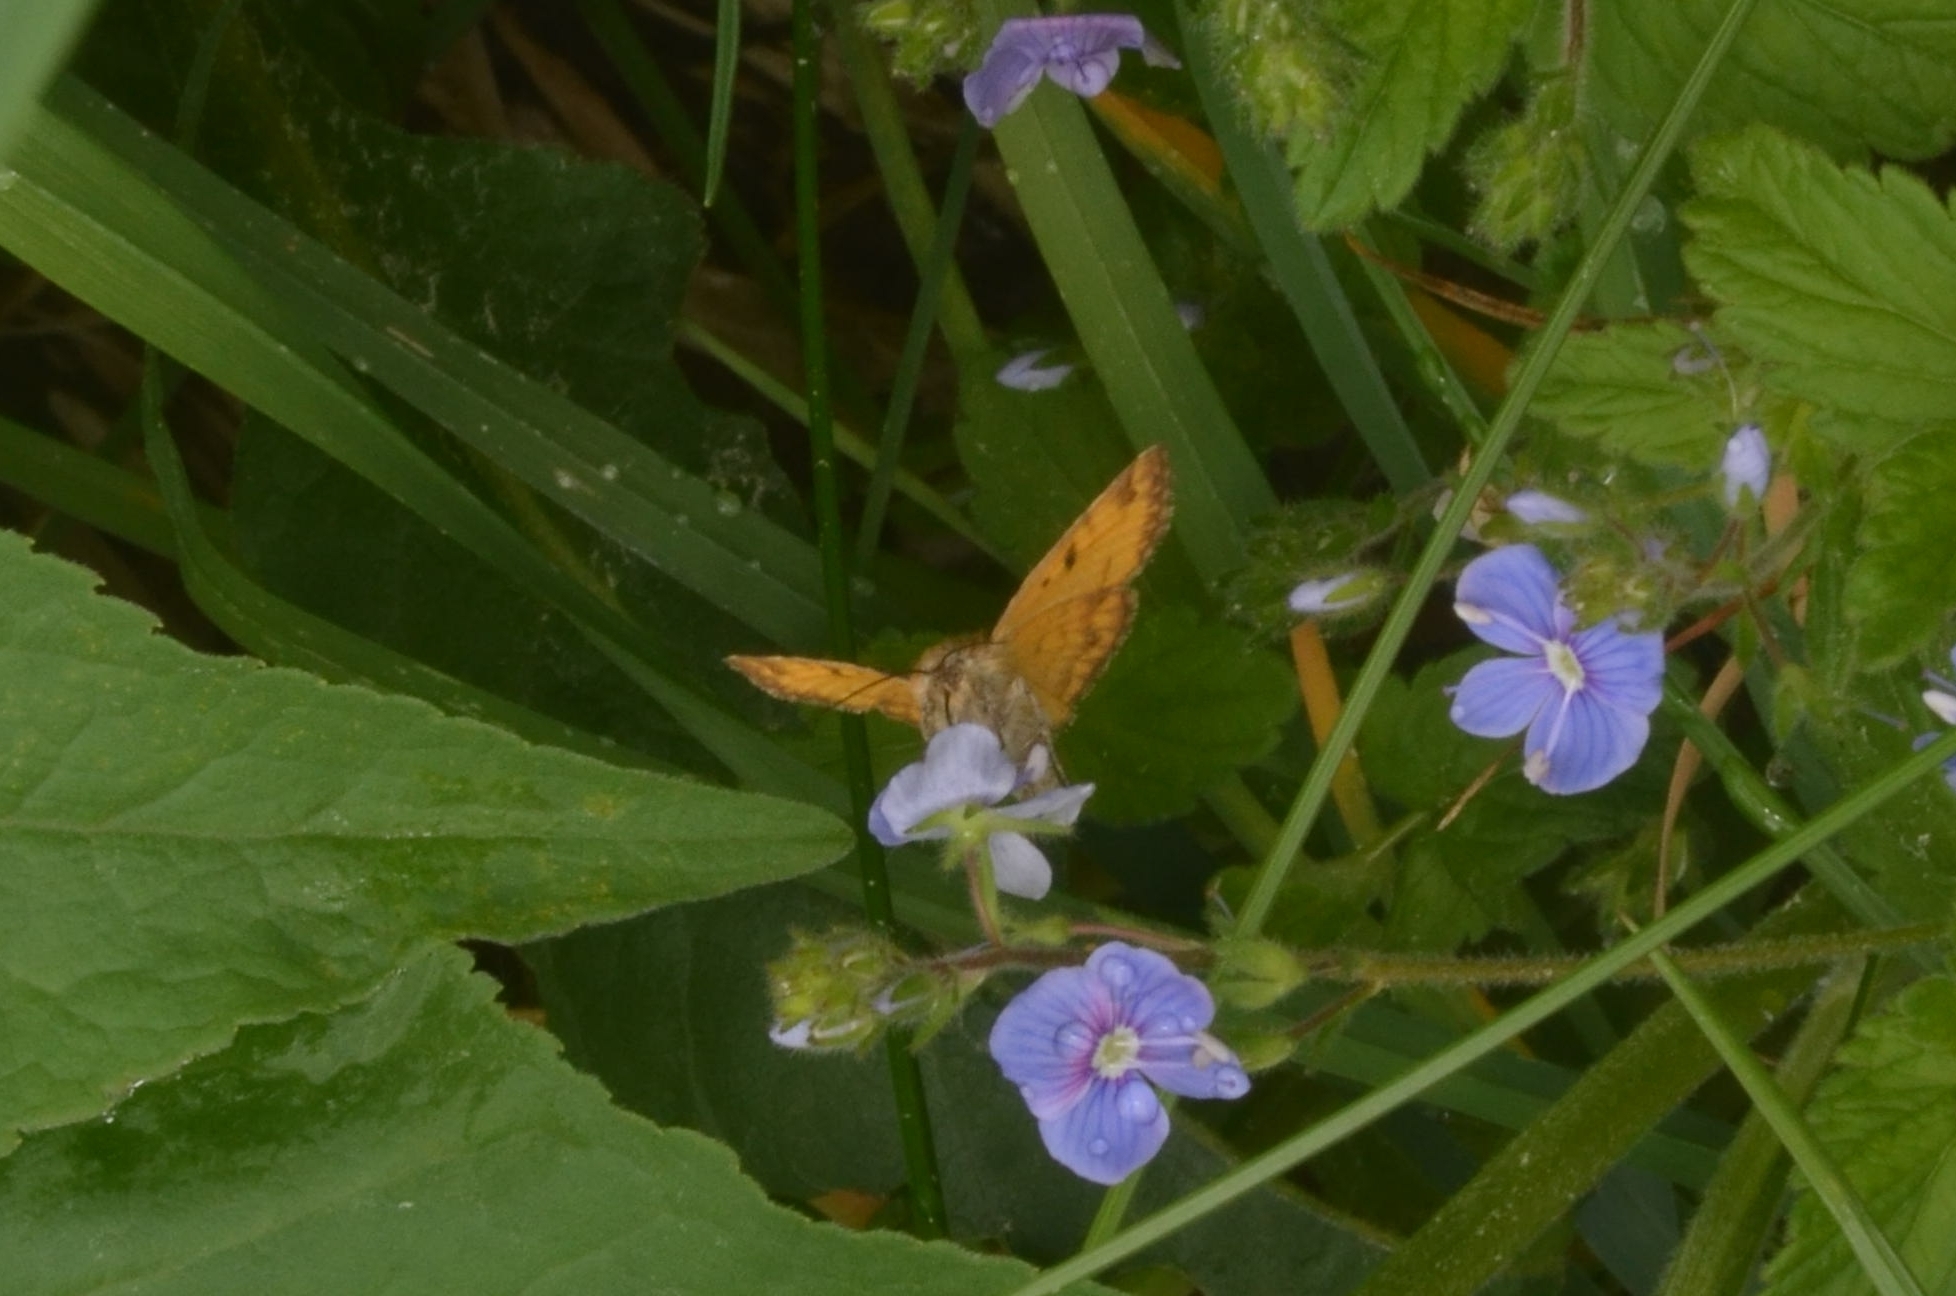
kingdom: Animalia
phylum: Arthropoda
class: Insecta
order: Lepidoptera
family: Erebidae
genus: Euclidia
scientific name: Euclidia glyphica
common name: Burnet companion
